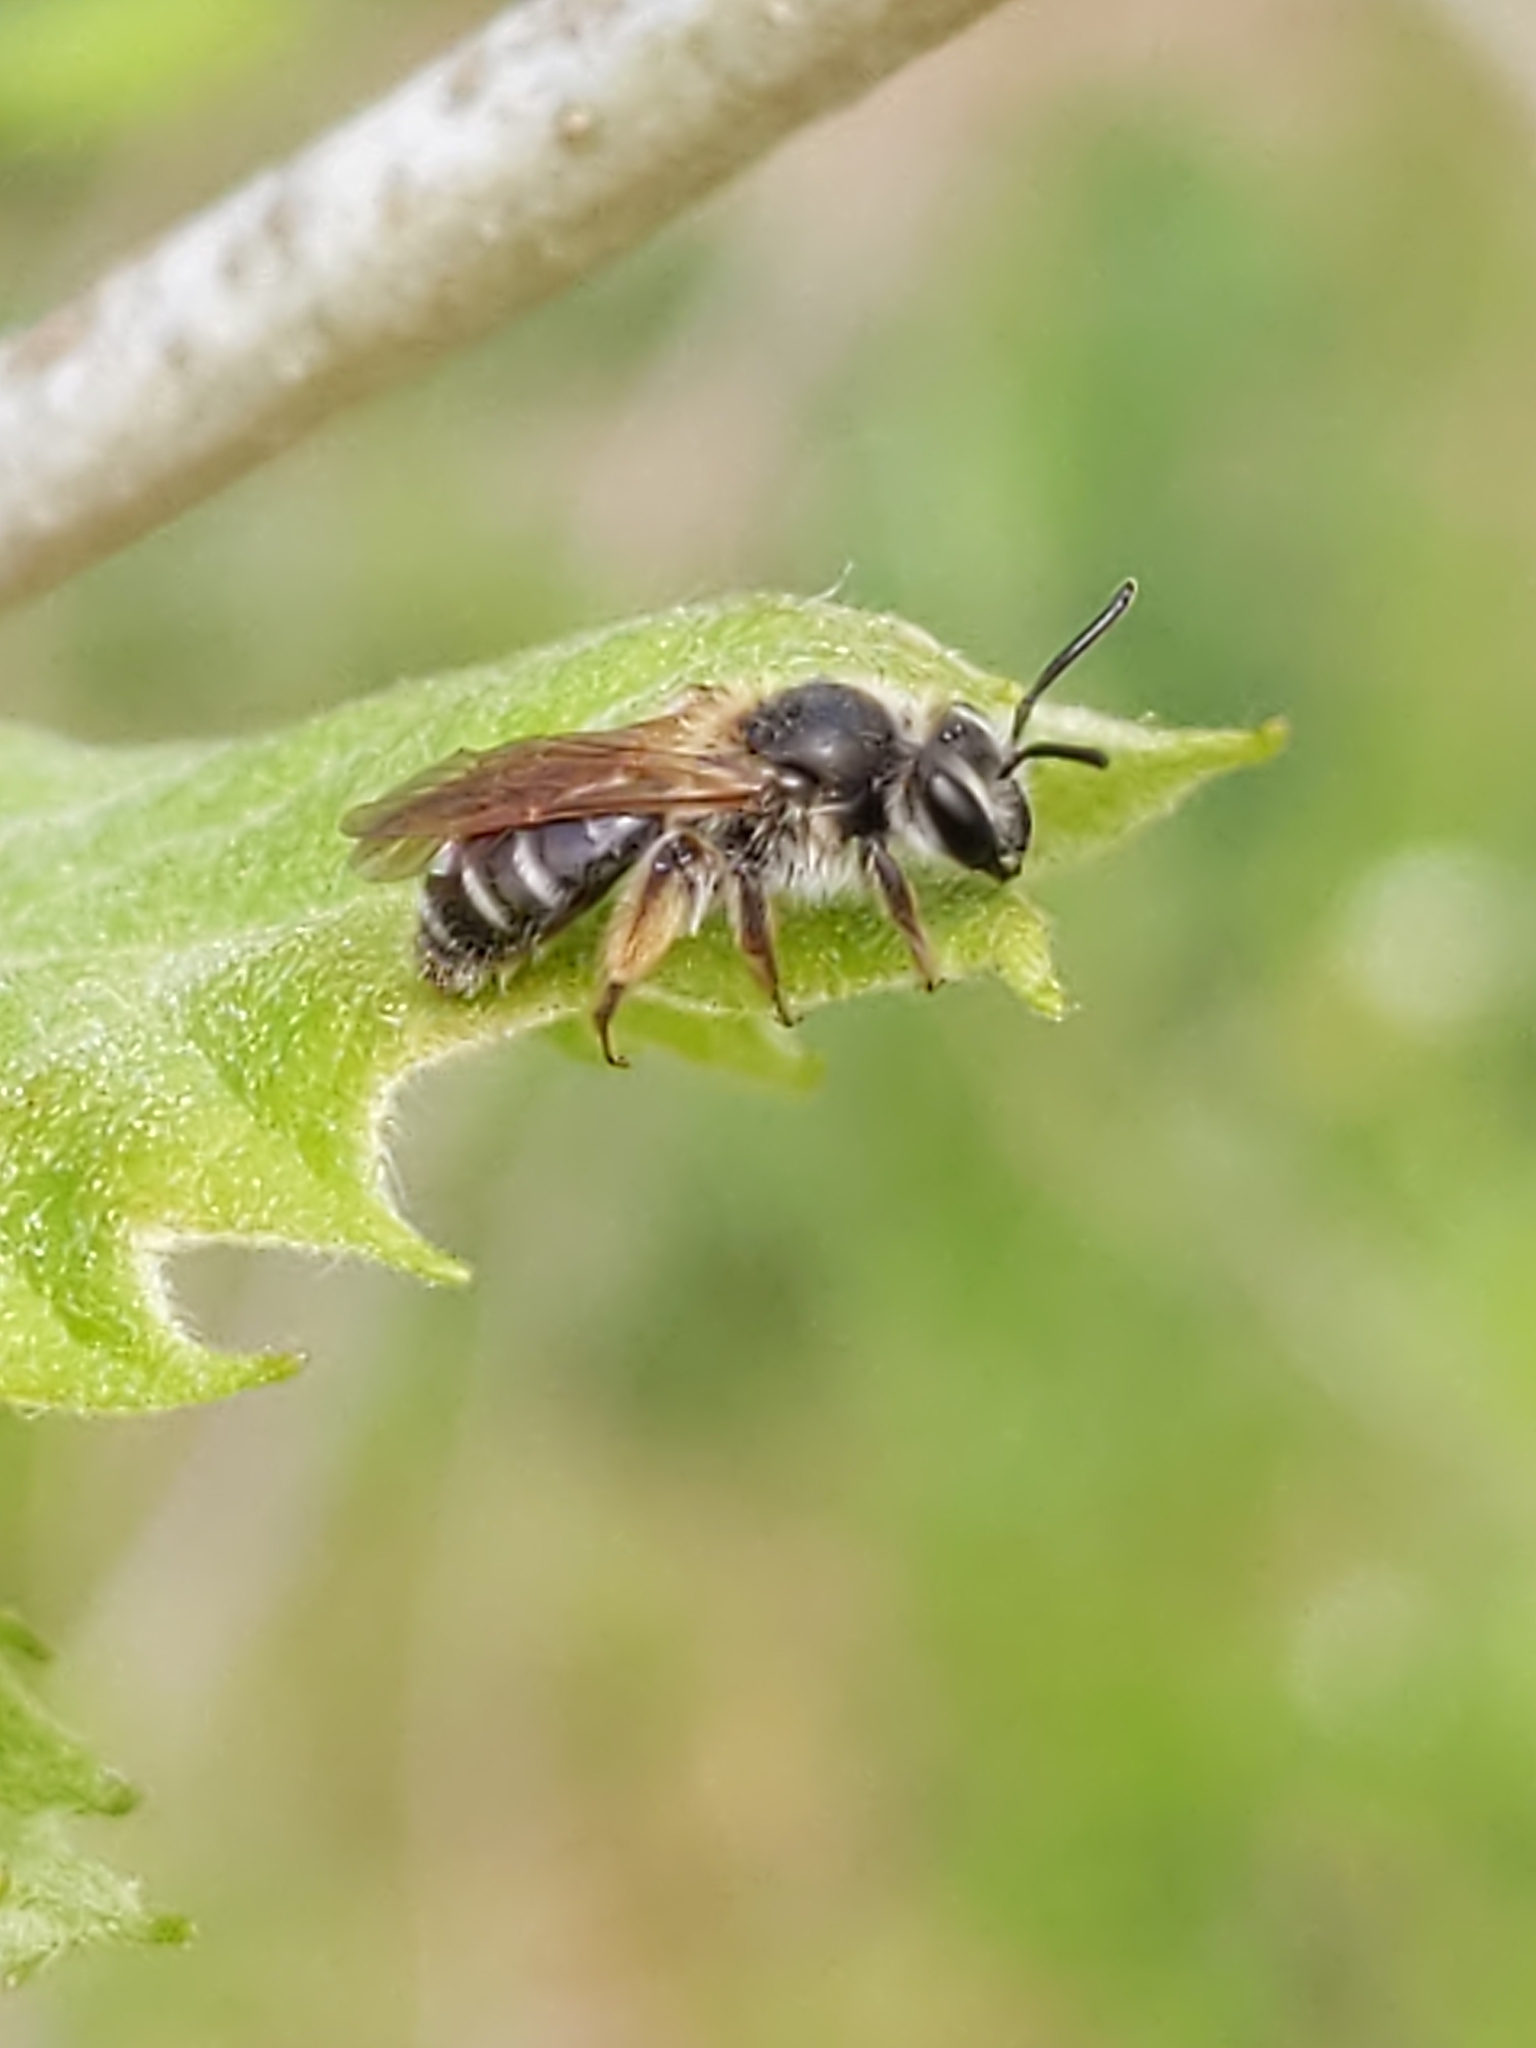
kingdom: Animalia
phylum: Arthropoda
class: Insecta
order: Hymenoptera
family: Andrenidae
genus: Andrena
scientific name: Andrena
